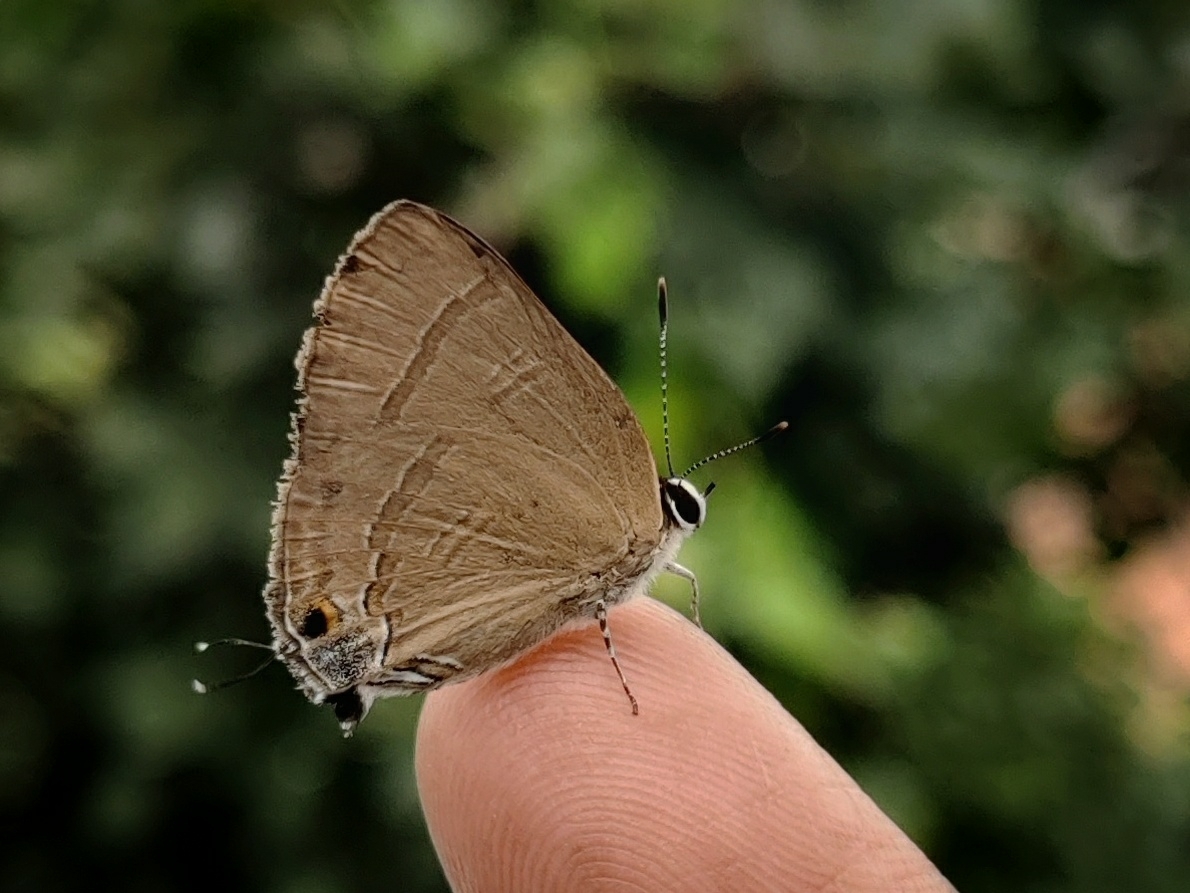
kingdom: Animalia
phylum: Arthropoda
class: Insecta
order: Lepidoptera
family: Lycaenidae
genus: Rapala
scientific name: Rapala manea
